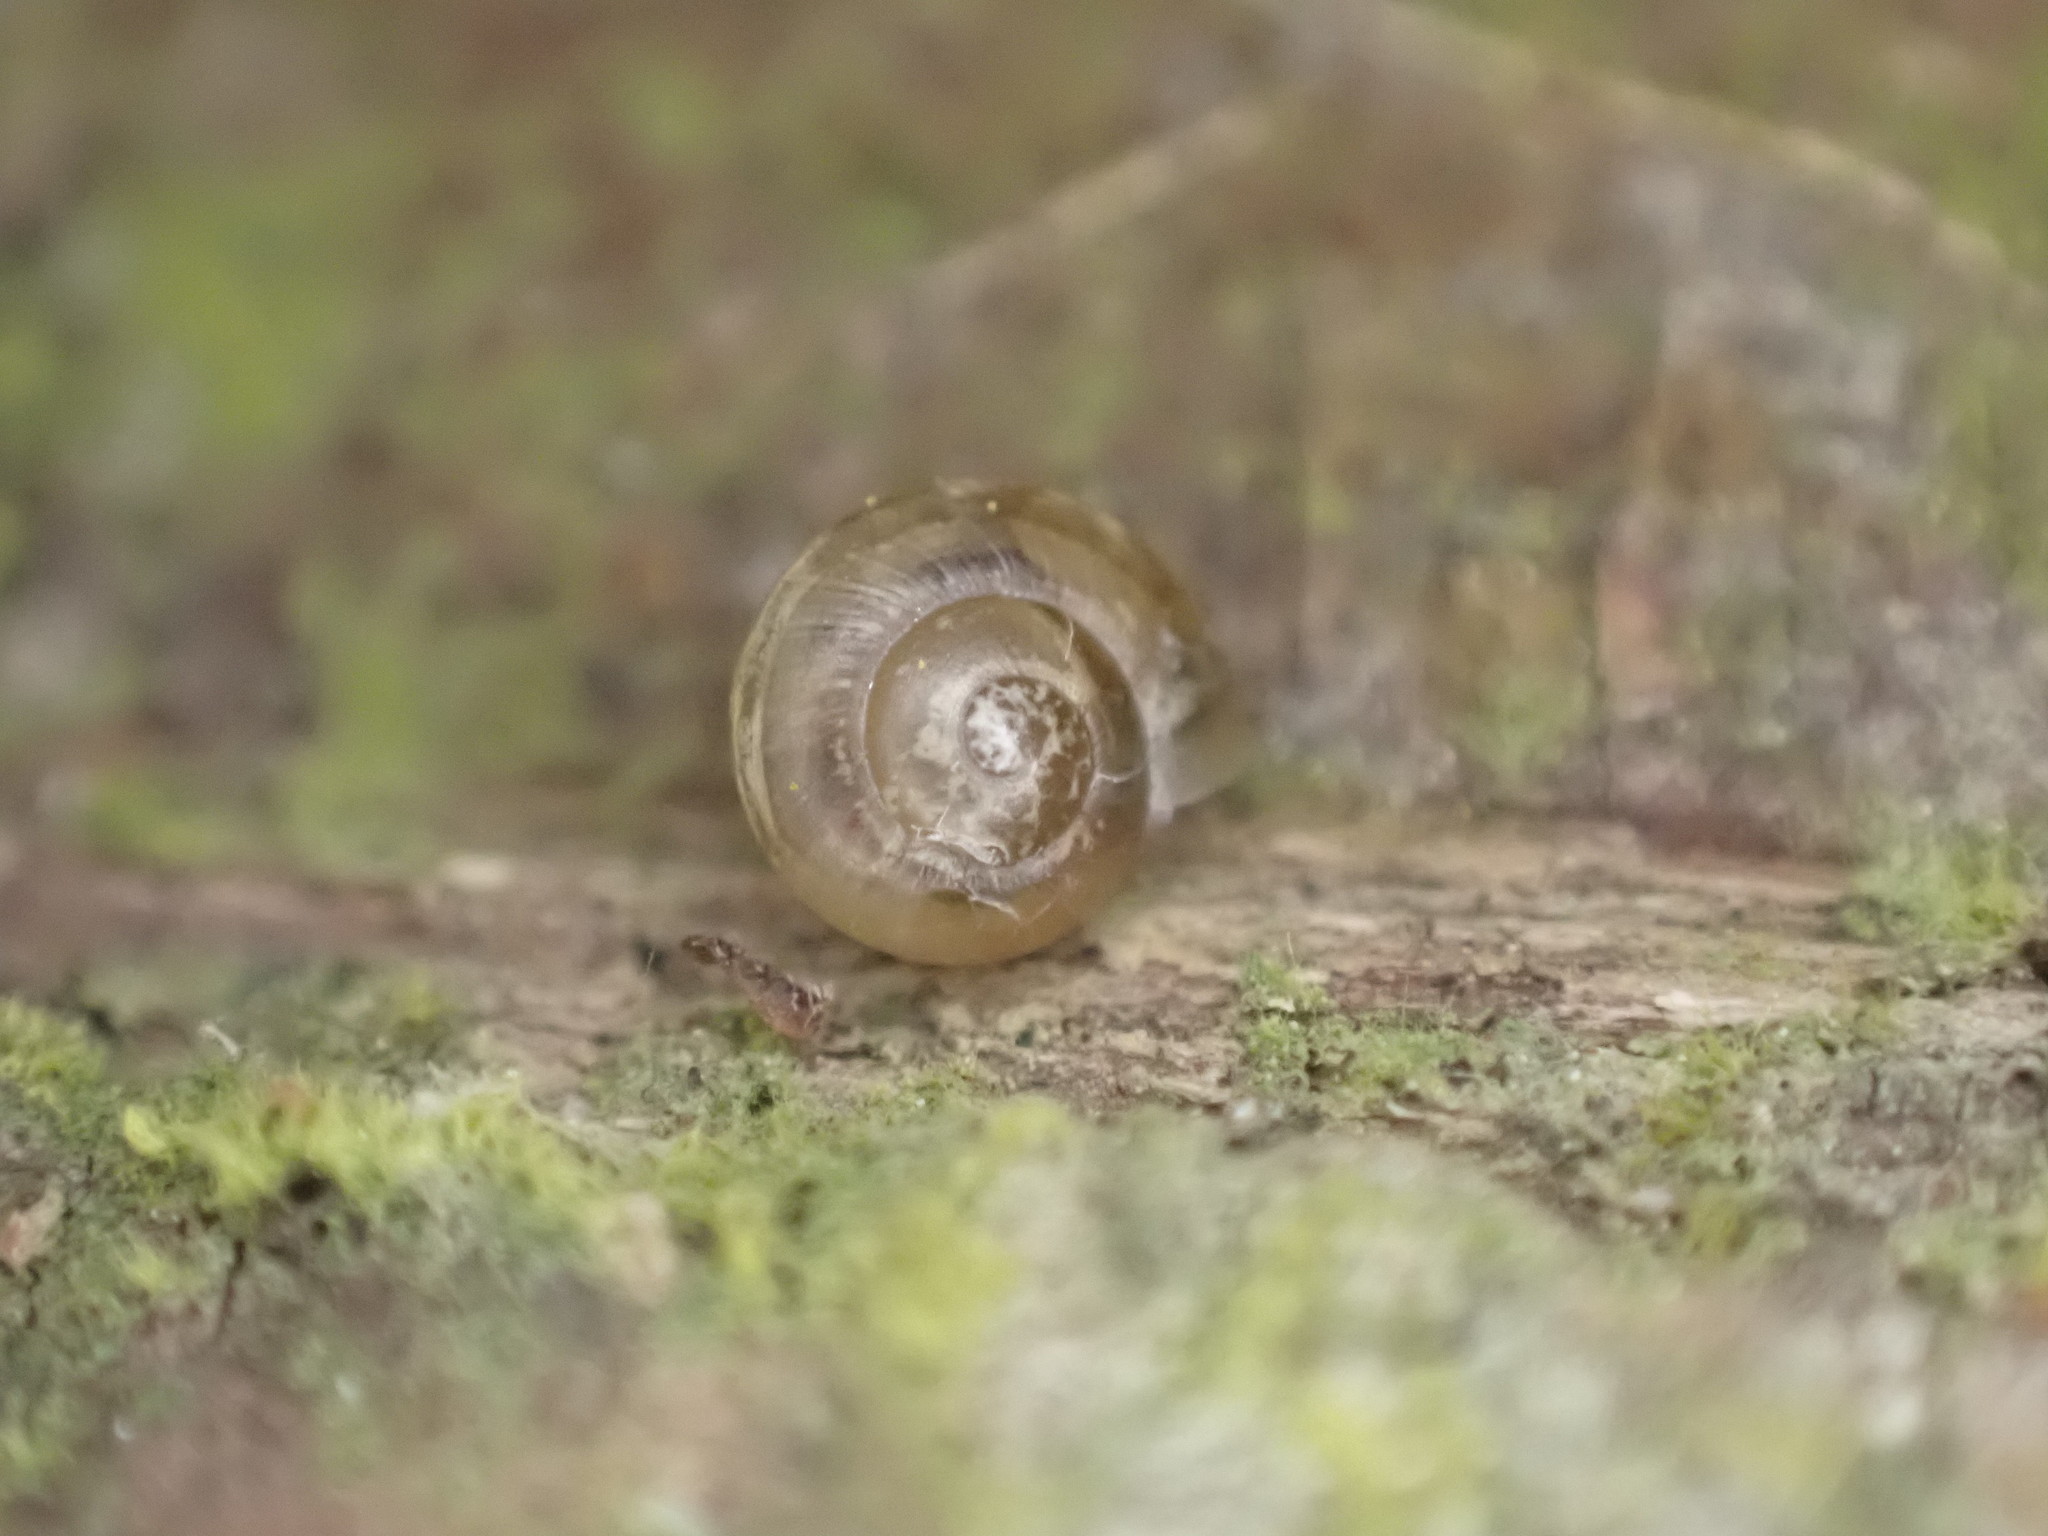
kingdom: Animalia
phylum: Mollusca
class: Gastropoda
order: Stylommatophora
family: Helicidae
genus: Cornu
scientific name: Cornu aspersum
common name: Brown garden snail
